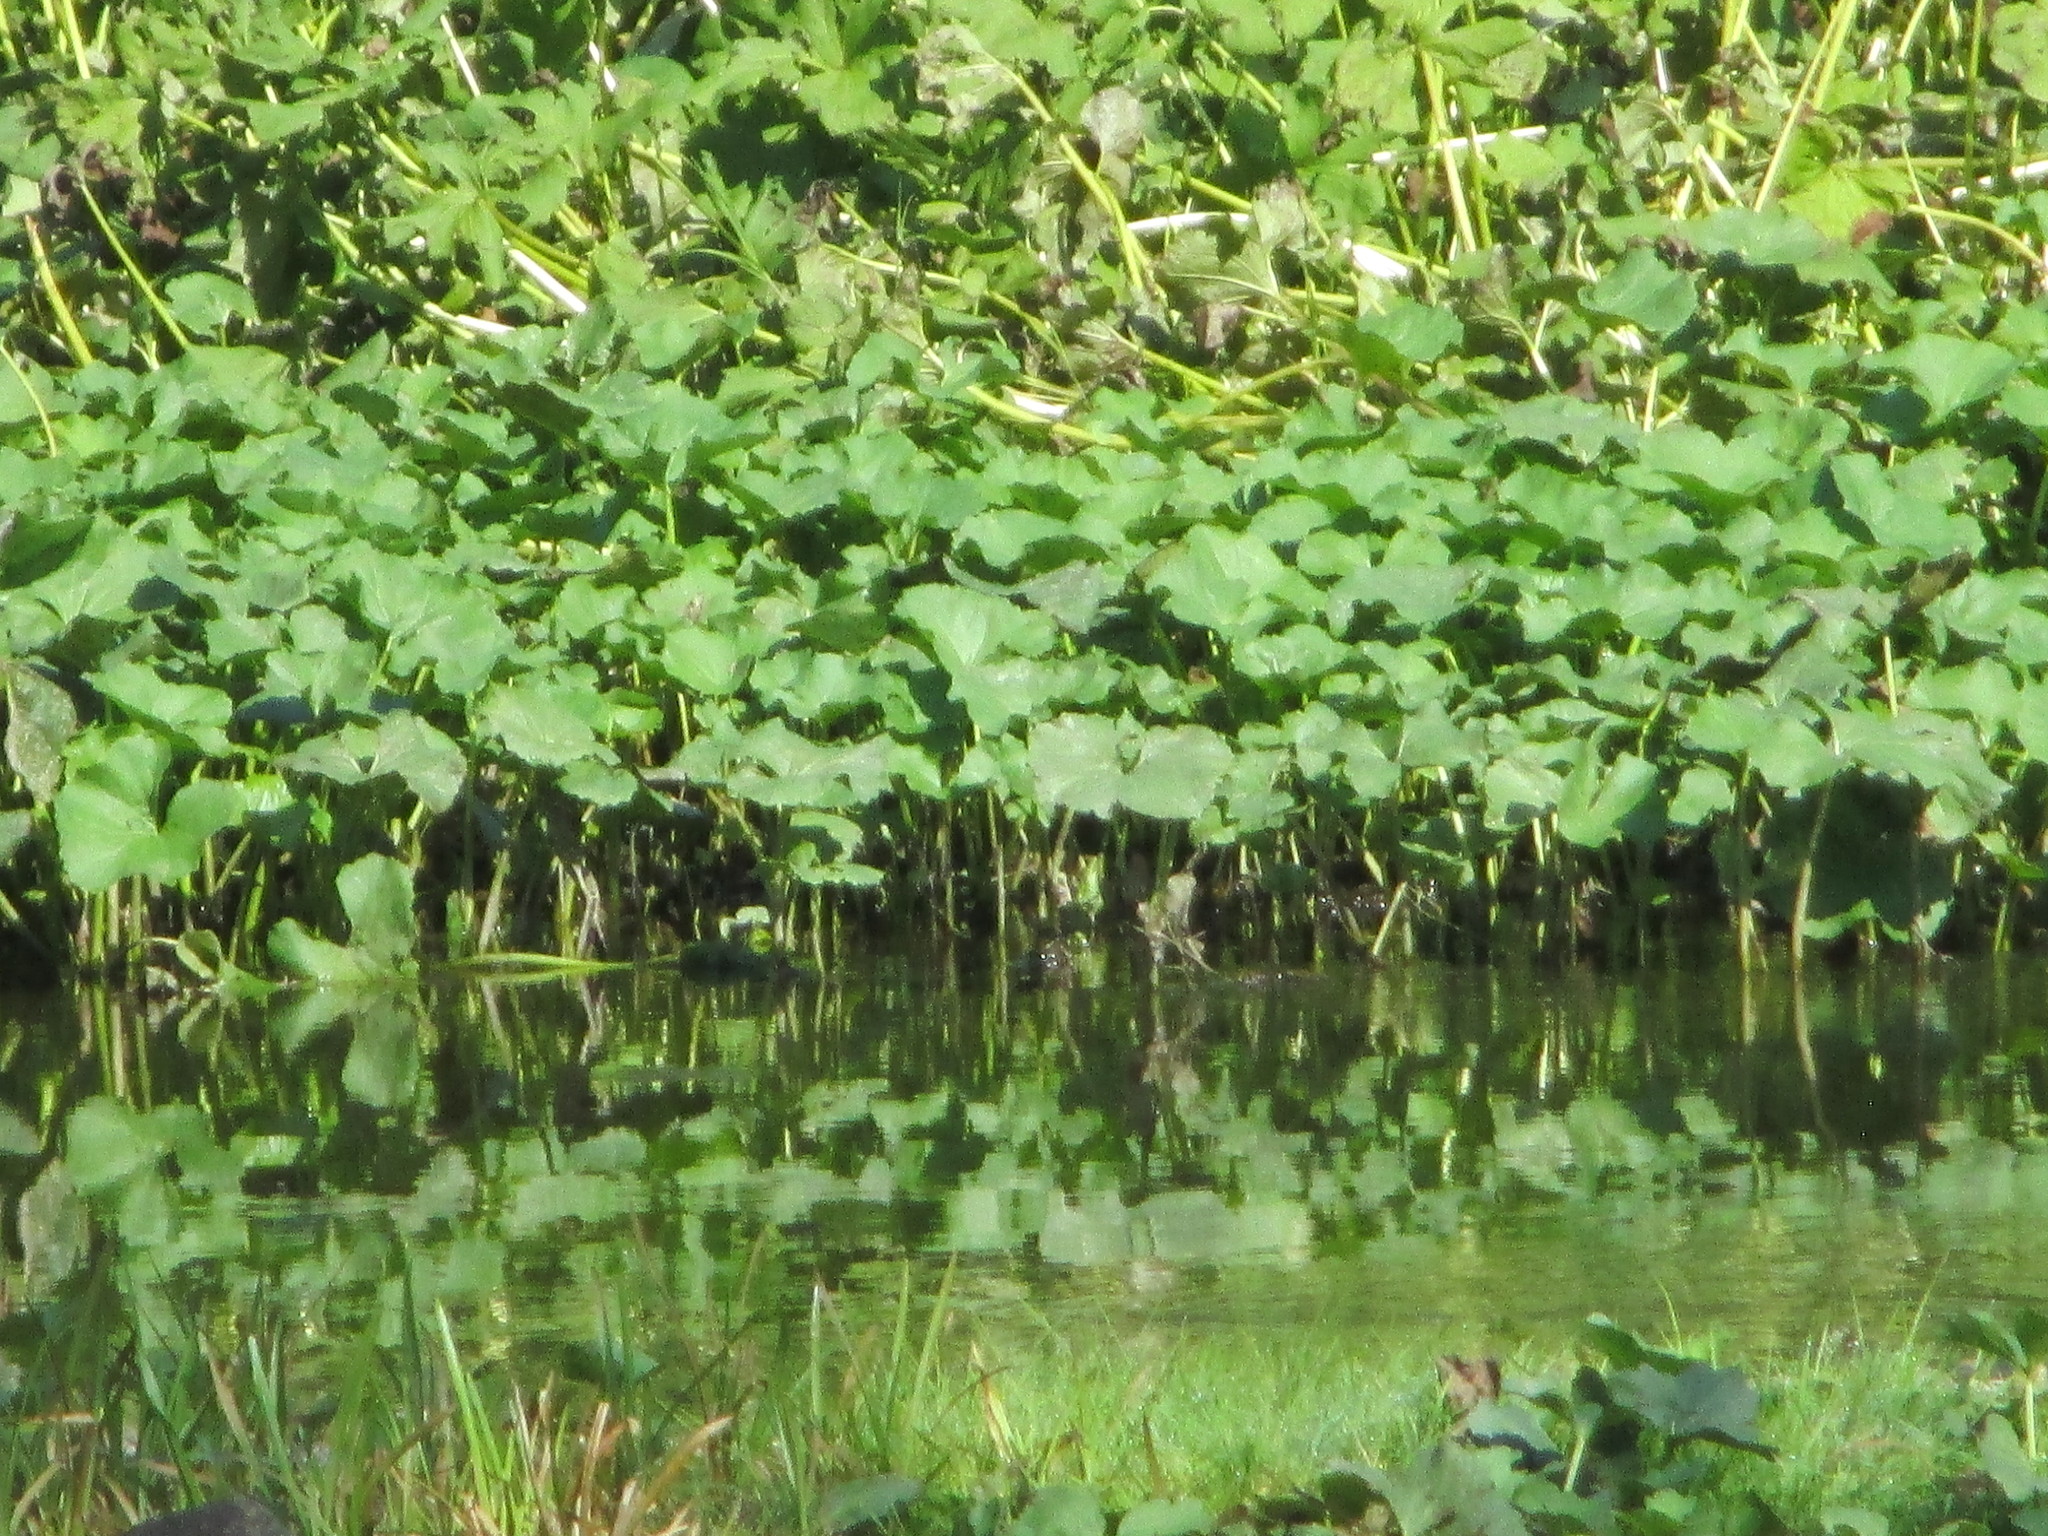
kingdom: Plantae
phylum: Tracheophyta
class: Magnoliopsida
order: Asterales
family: Asteraceae
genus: Petasites
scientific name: Petasites radiatus
